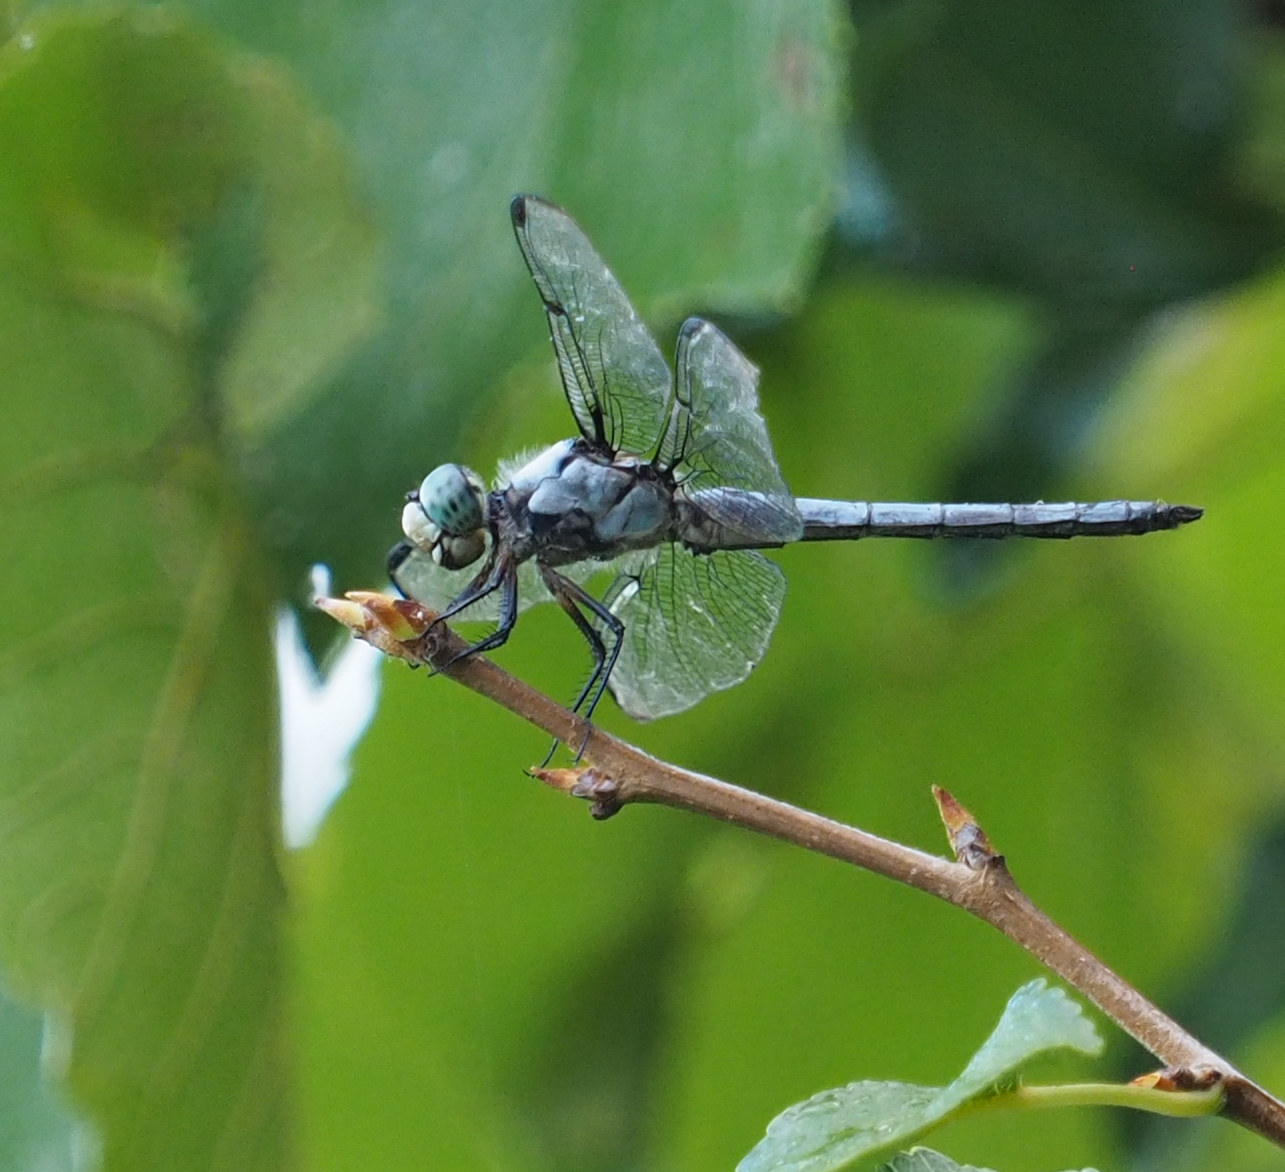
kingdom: Animalia
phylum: Arthropoda
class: Insecta
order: Odonata
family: Libellulidae
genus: Libellula
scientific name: Libellula vibrans
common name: Great blue skimmer
